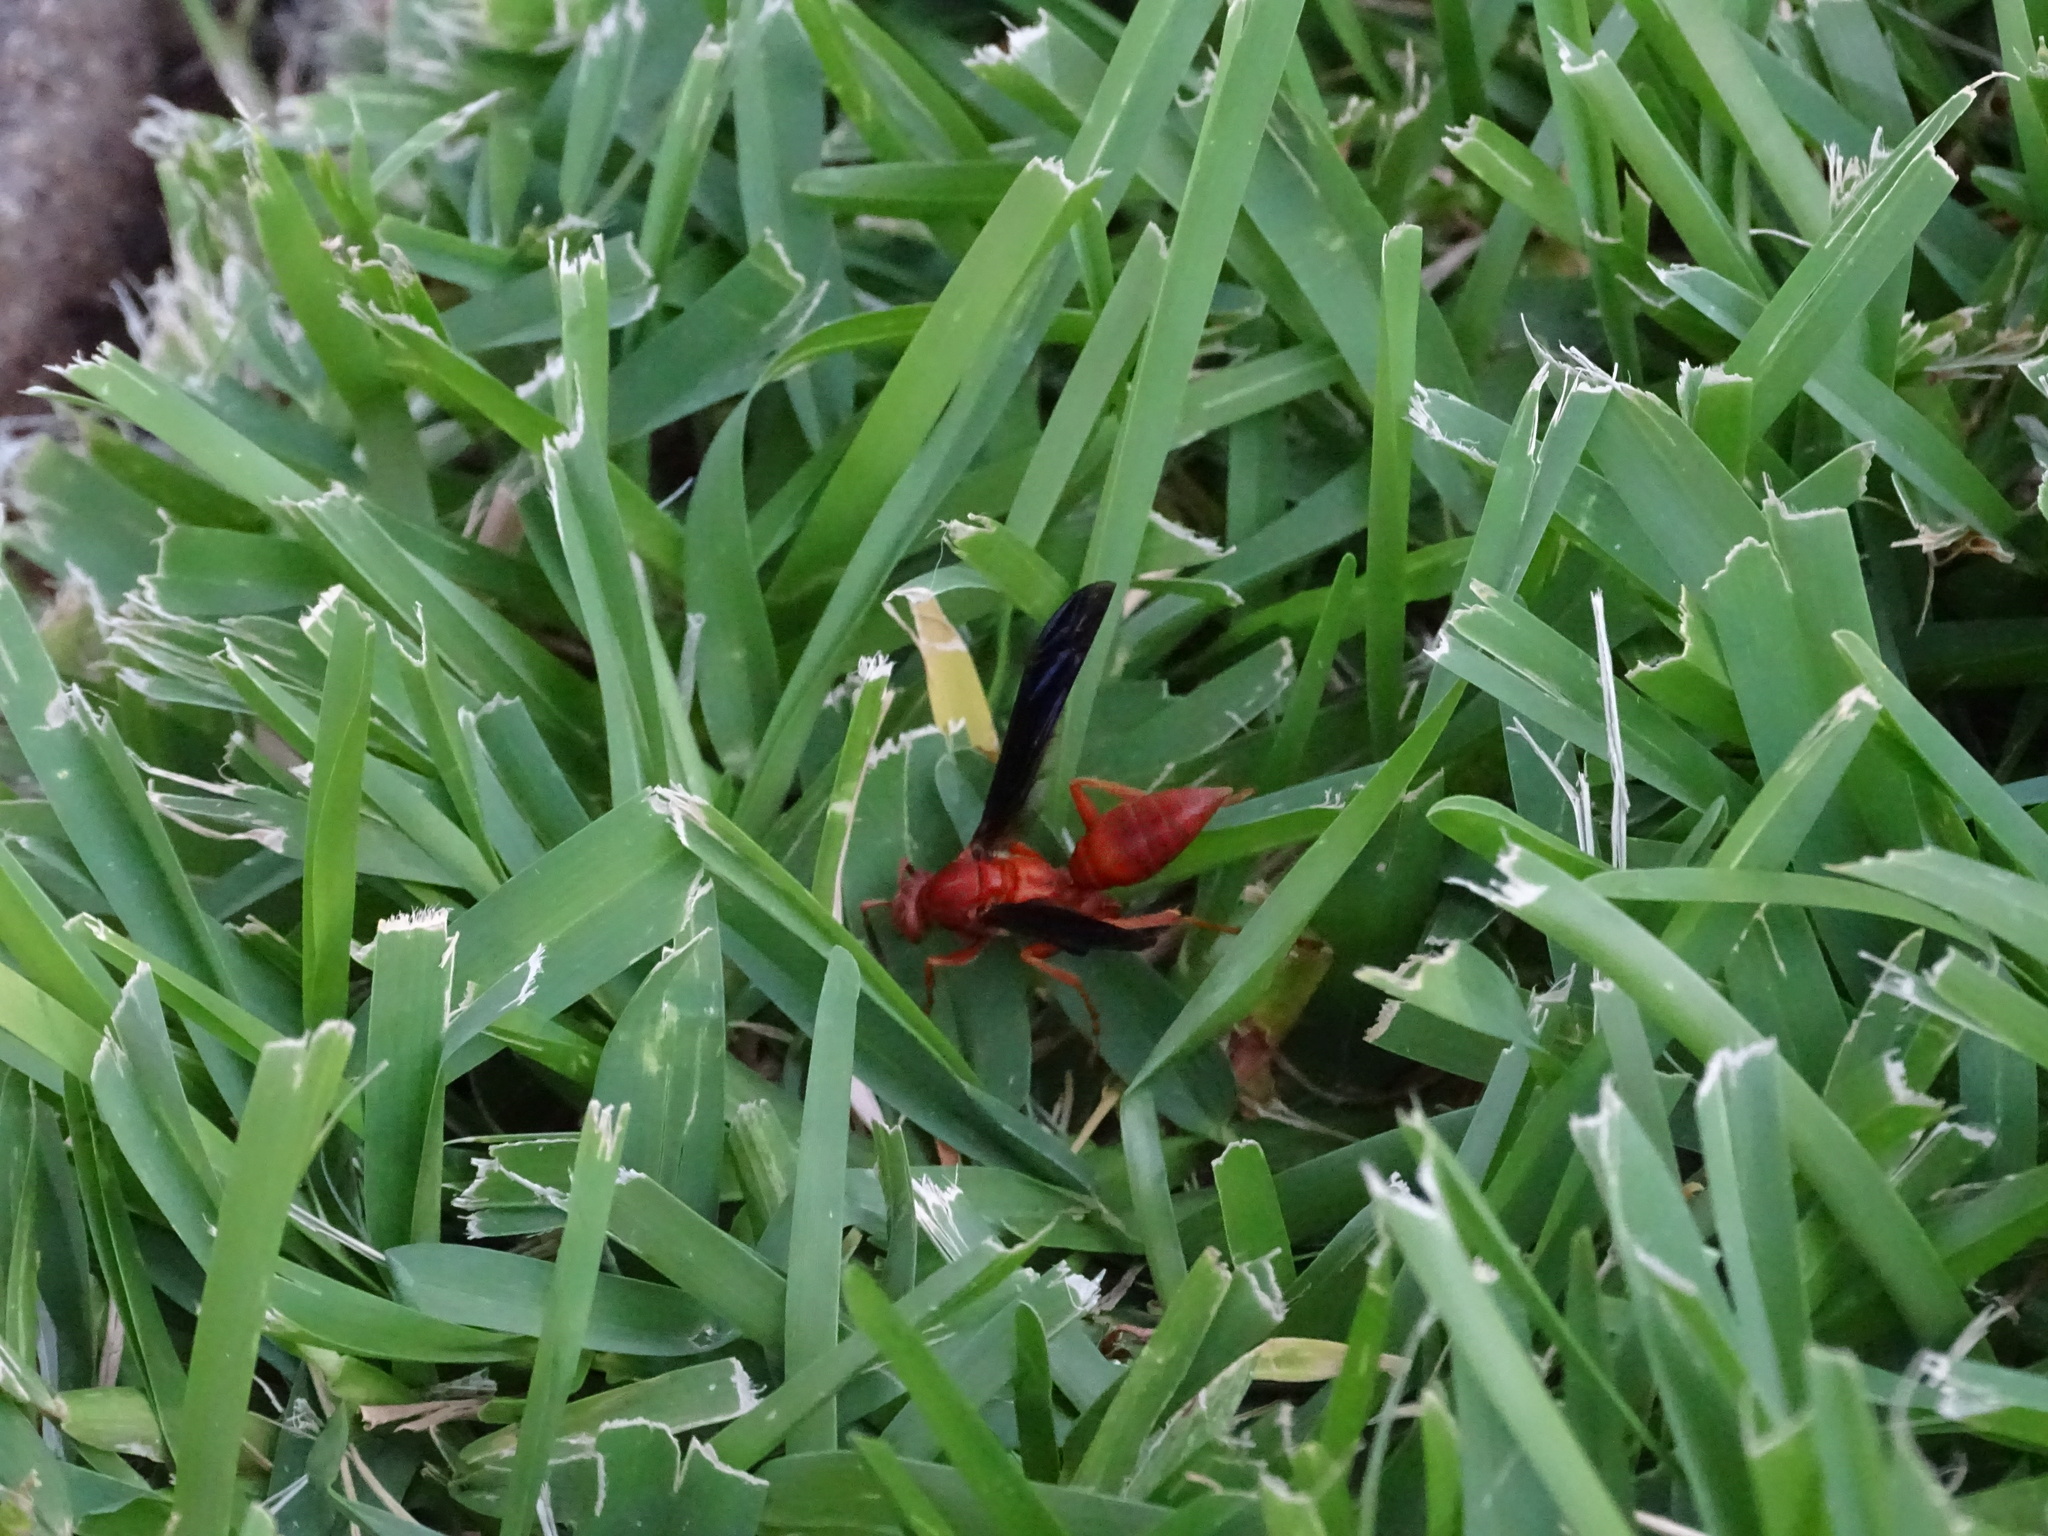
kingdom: Animalia
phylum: Arthropoda
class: Insecta
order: Hymenoptera
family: Vespidae
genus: Fuscopolistes
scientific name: Fuscopolistes
